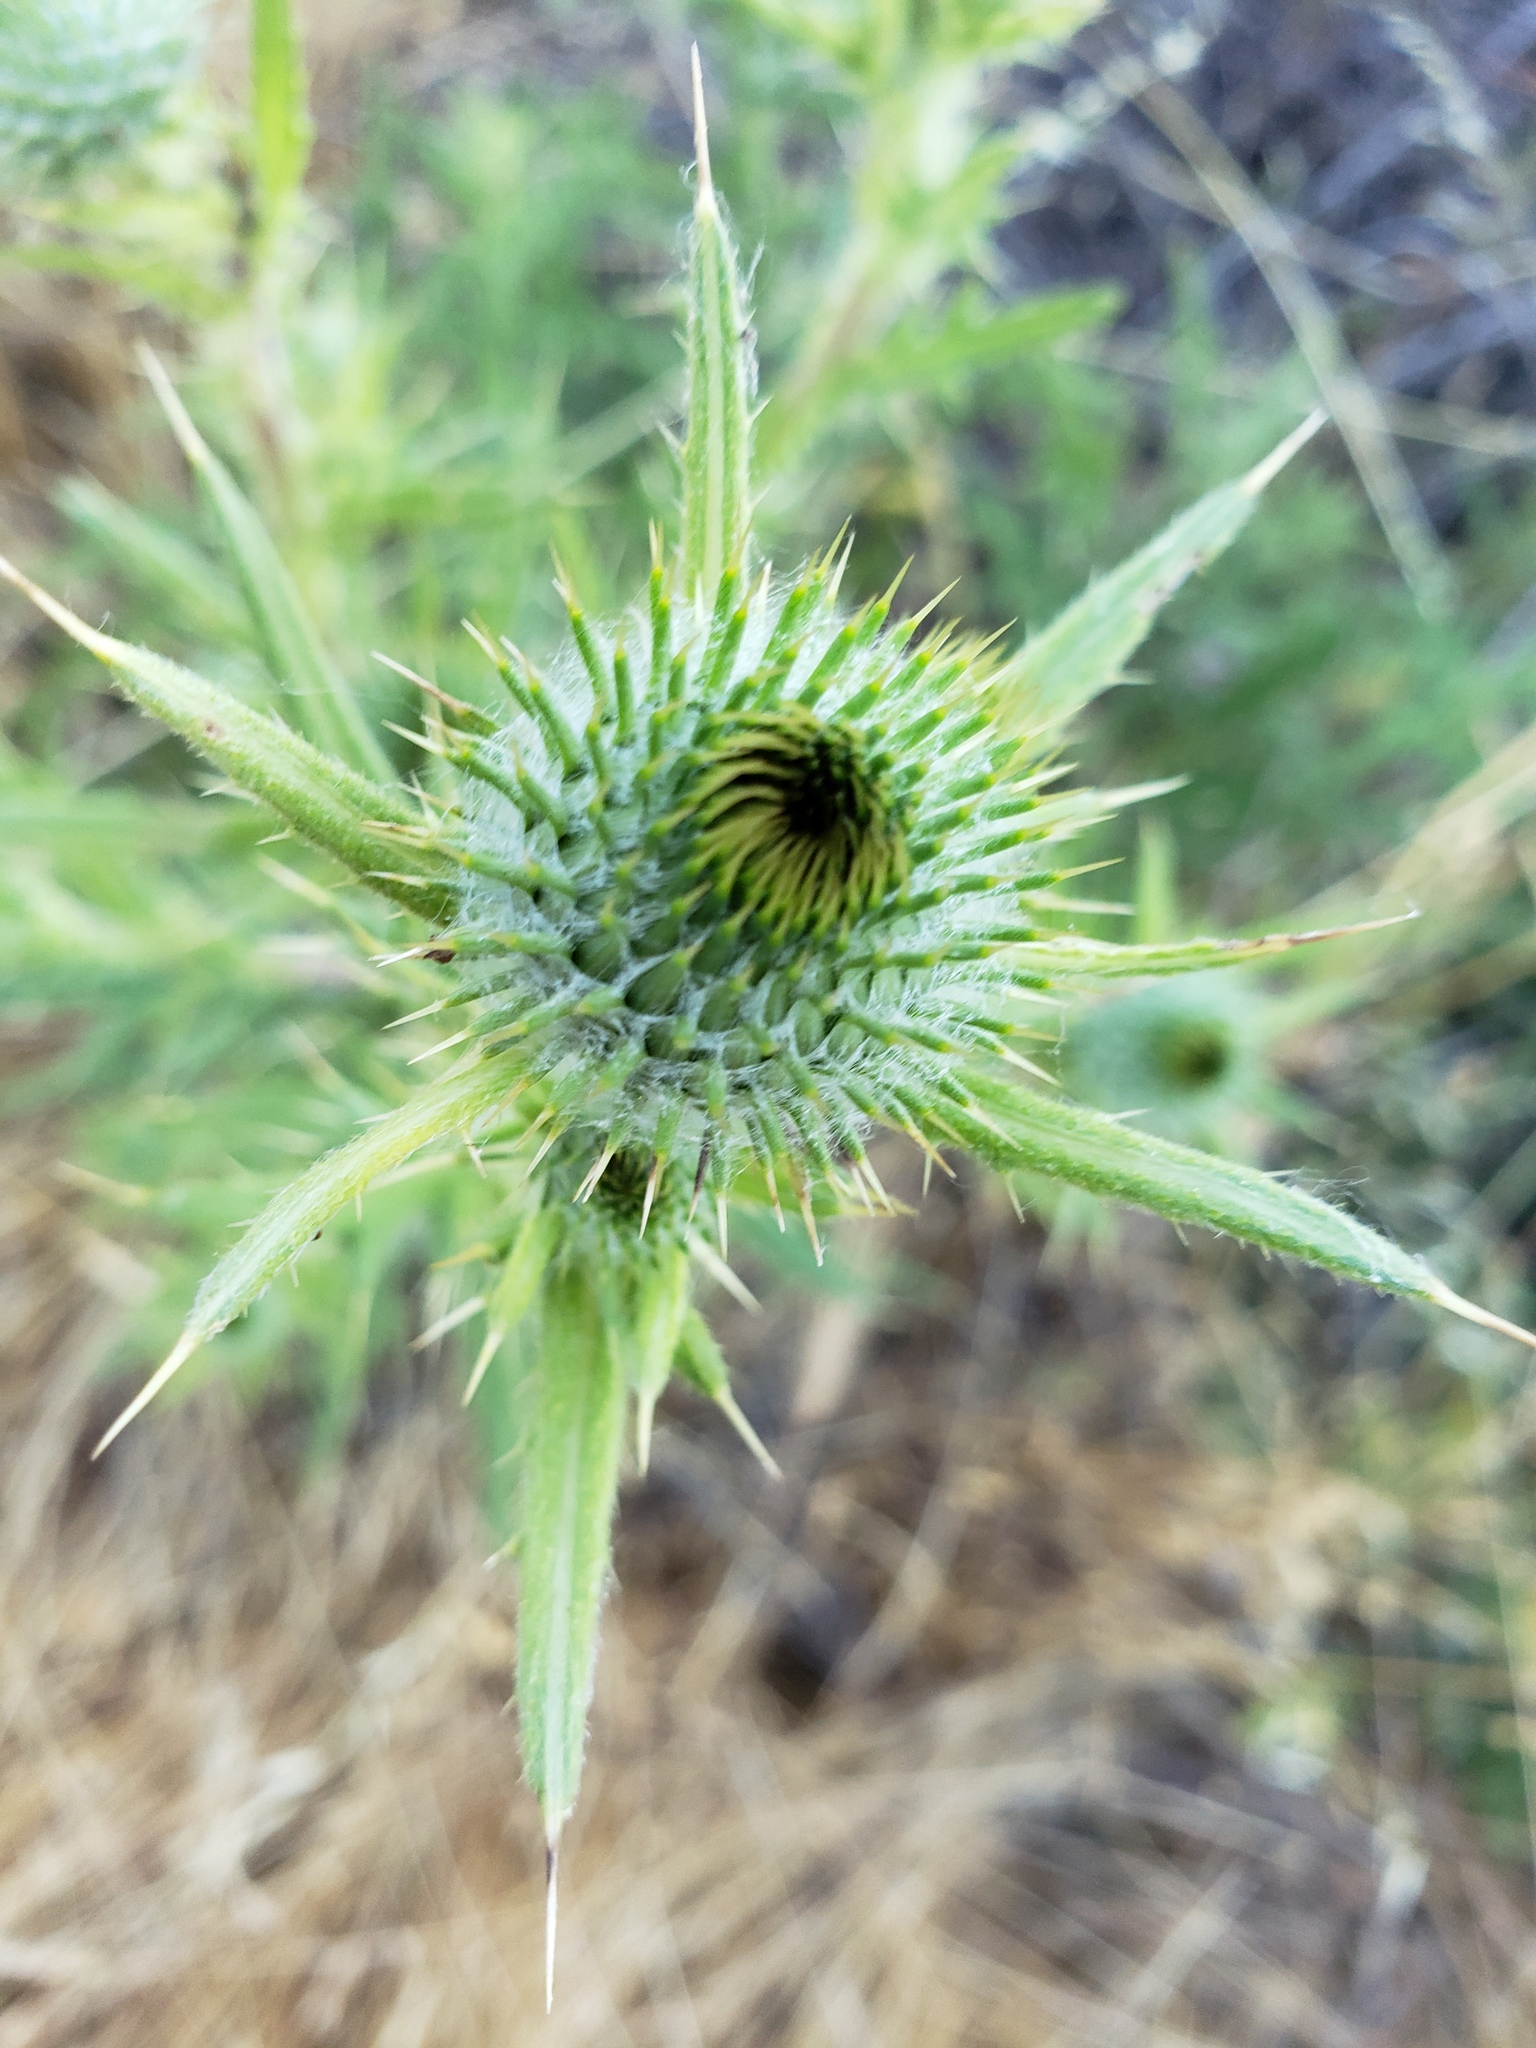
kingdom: Plantae
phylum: Tracheophyta
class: Magnoliopsida
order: Asterales
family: Asteraceae
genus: Cirsium
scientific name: Cirsium vulgare
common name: Bull thistle
